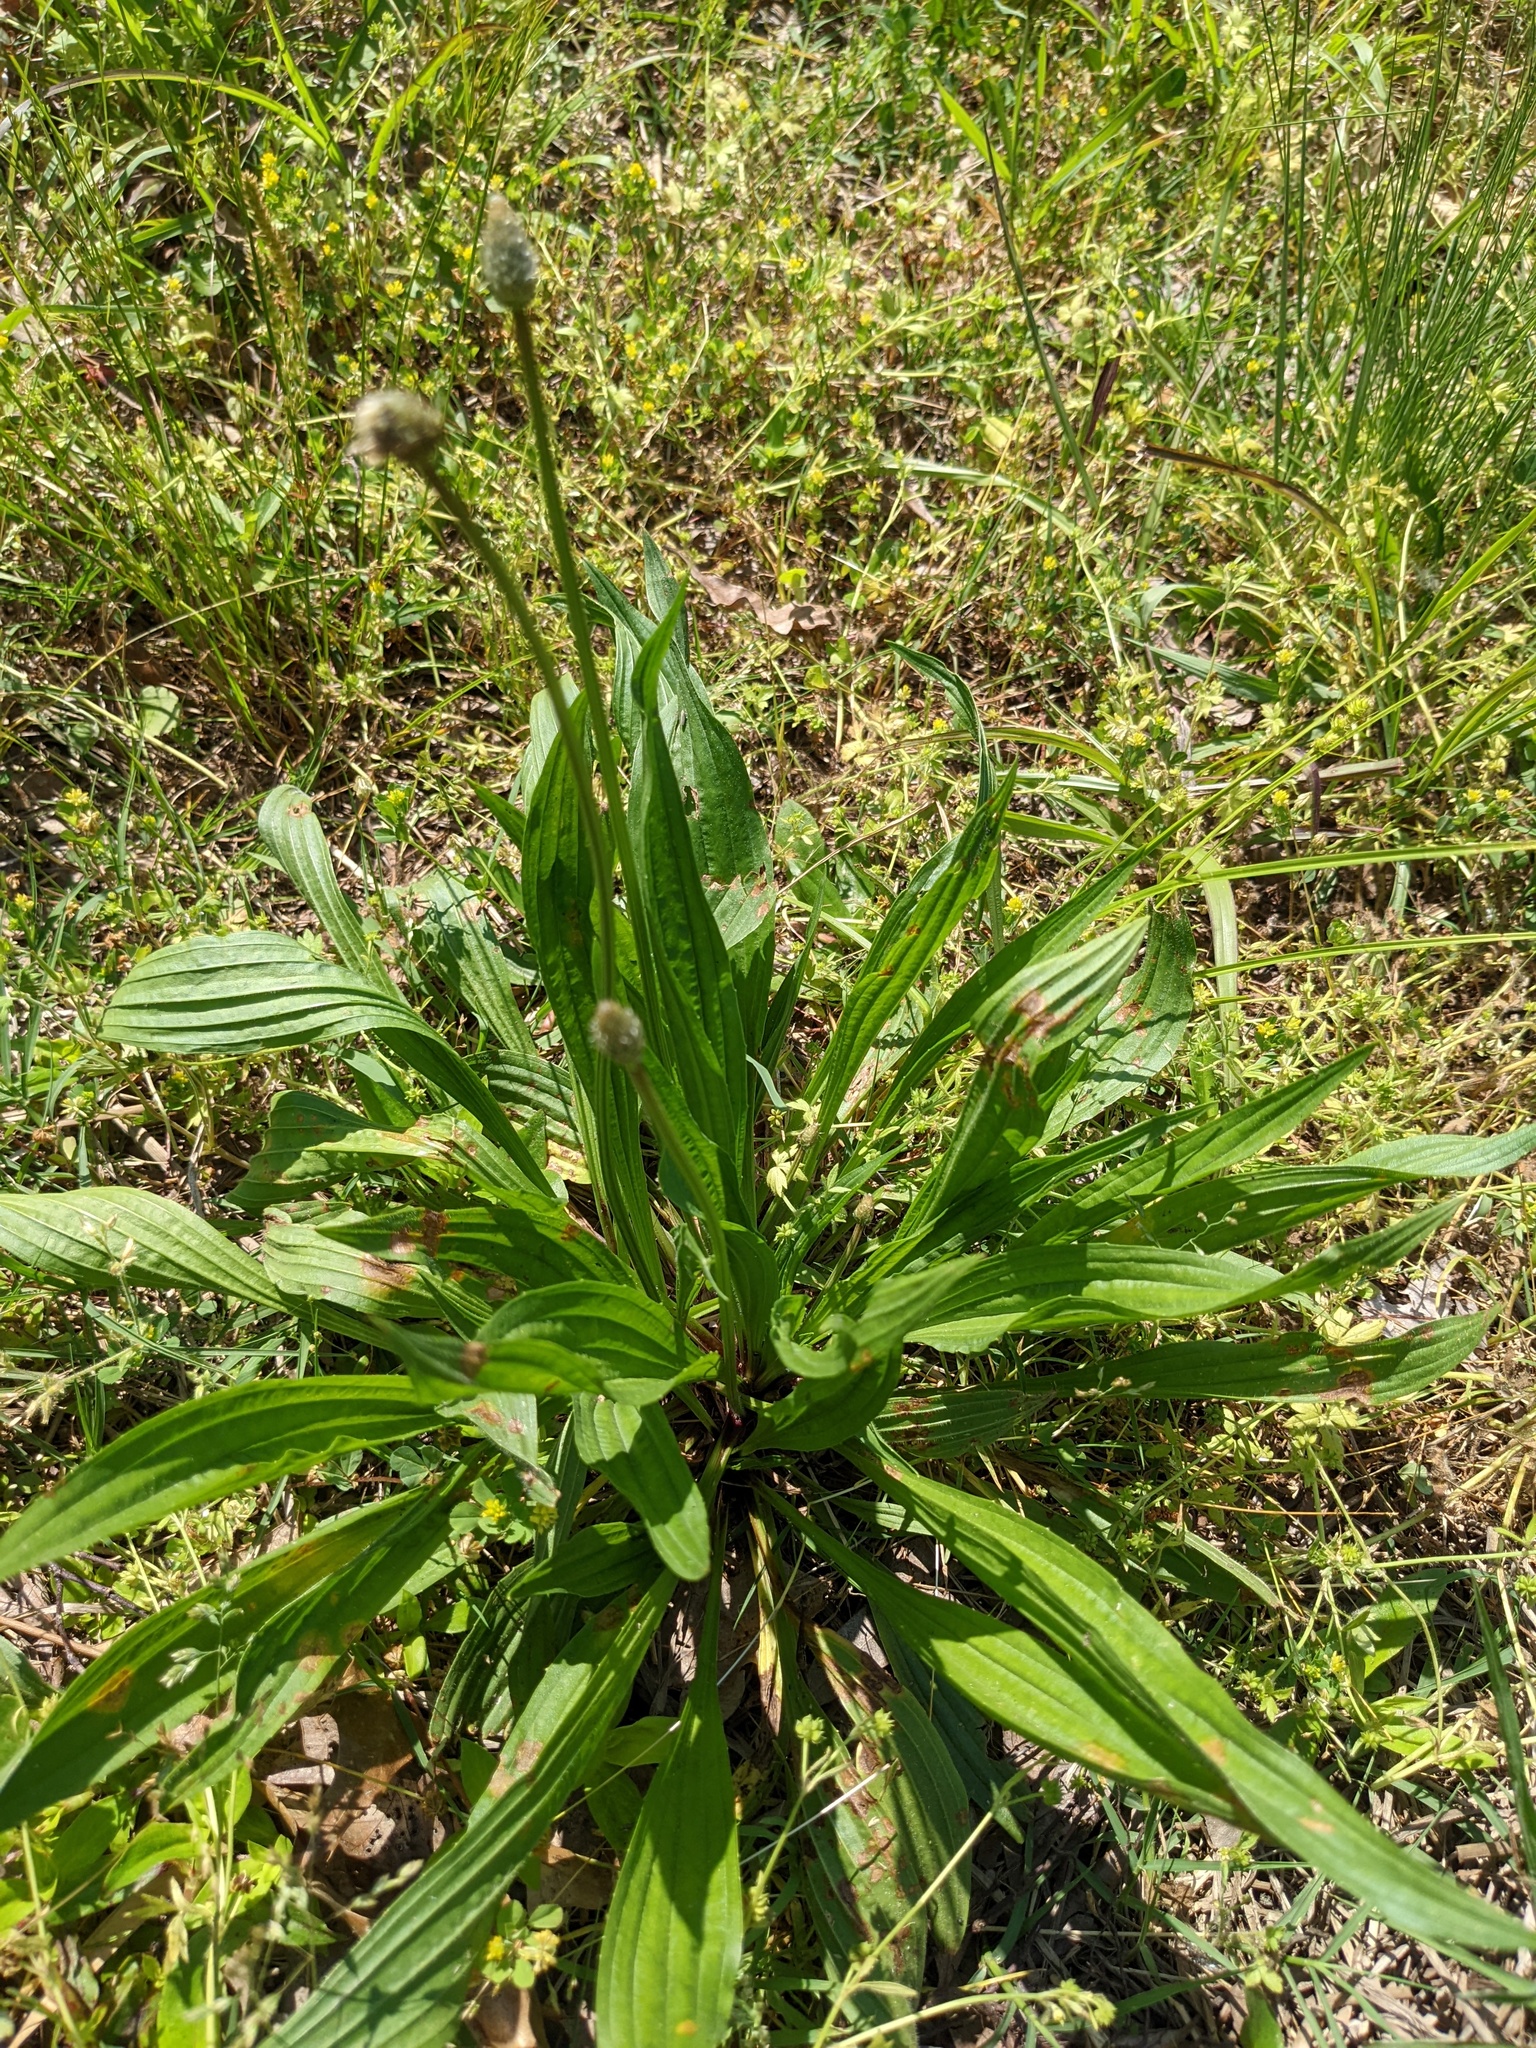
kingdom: Plantae
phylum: Tracheophyta
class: Magnoliopsida
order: Lamiales
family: Plantaginaceae
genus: Plantago
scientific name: Plantago lanceolata
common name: Ribwort plantain
